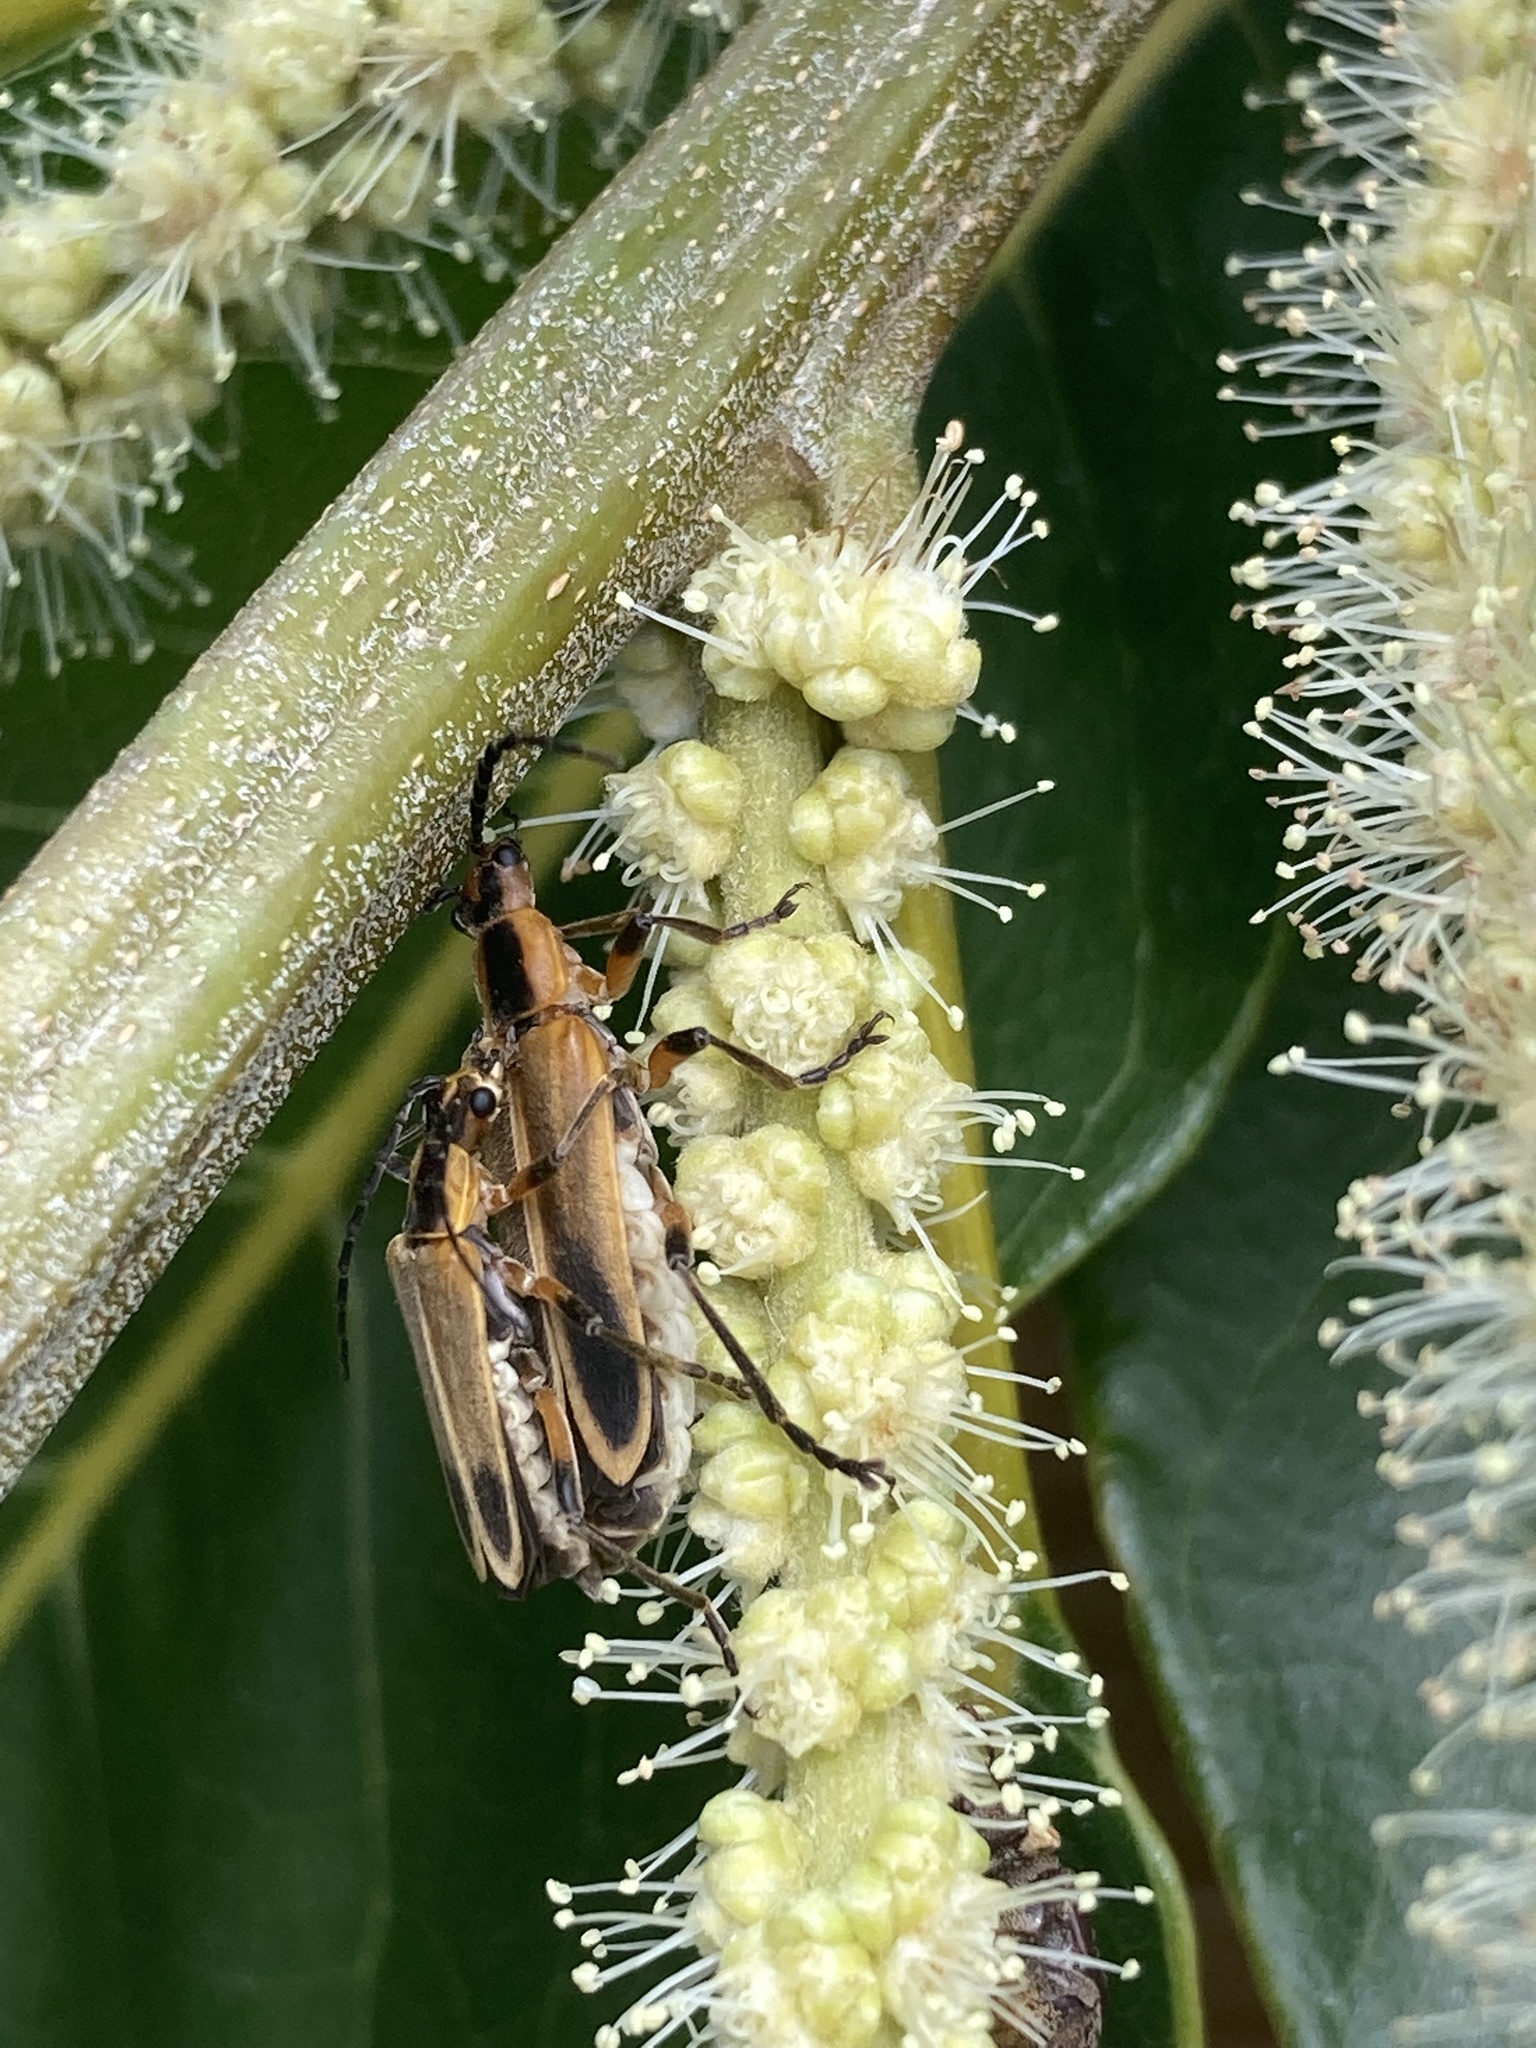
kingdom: Animalia
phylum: Arthropoda
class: Insecta
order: Coleoptera
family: Cantharidae
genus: Chauliognathus
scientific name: Chauliognathus marginatus
